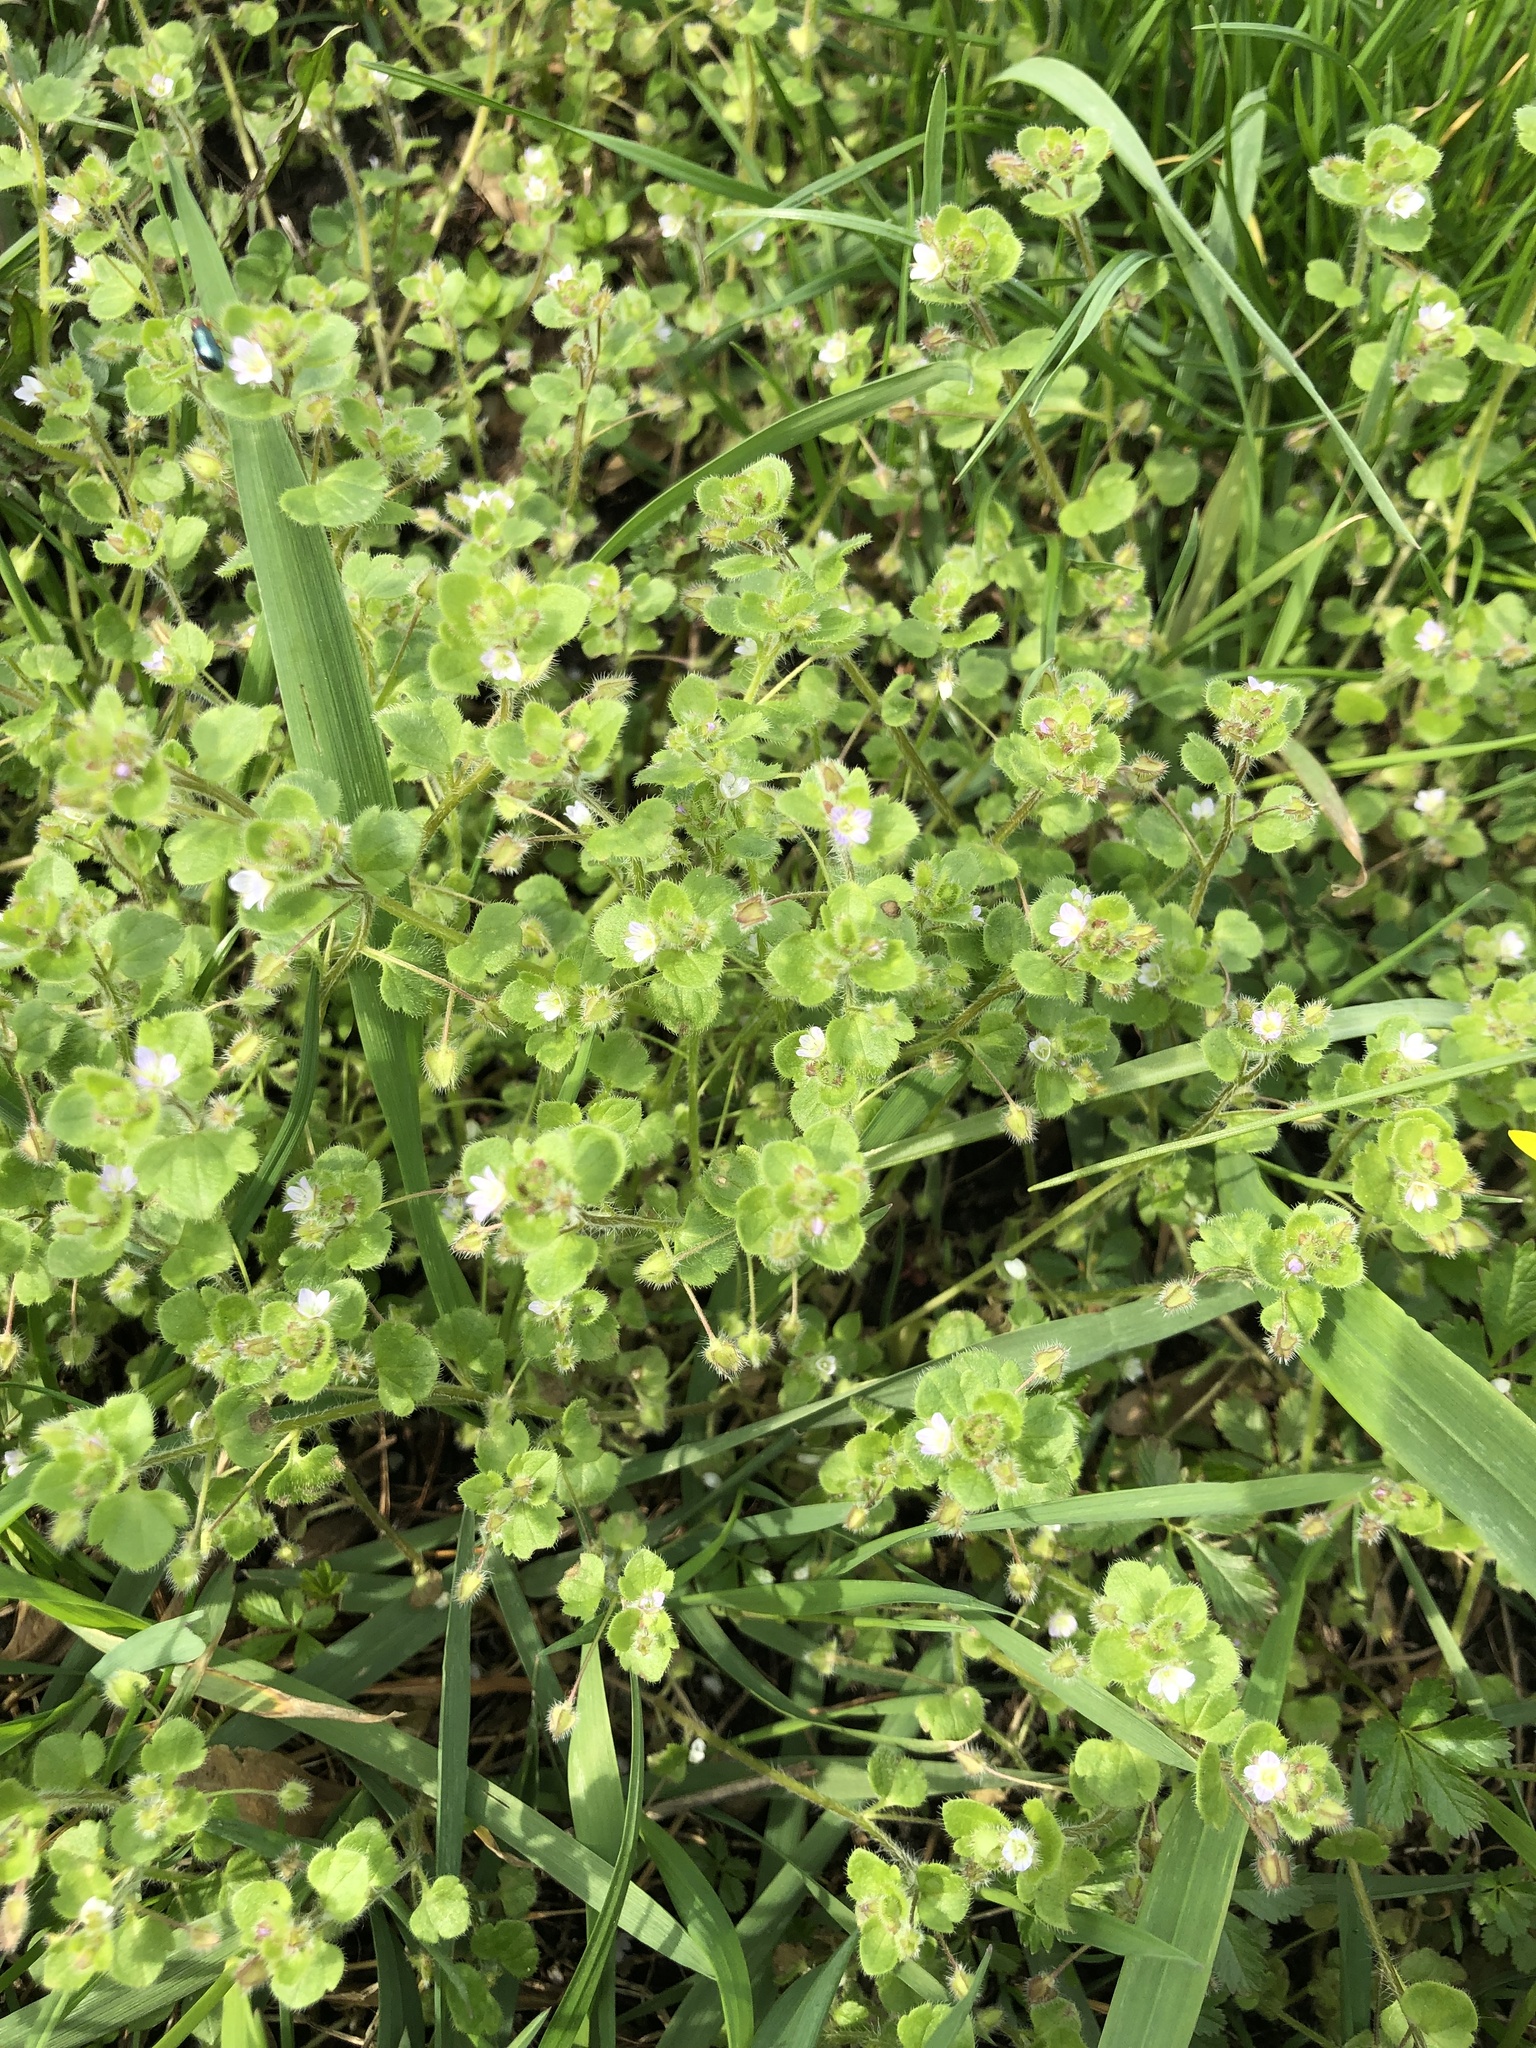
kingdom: Plantae
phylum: Tracheophyta
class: Magnoliopsida
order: Lamiales
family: Plantaginaceae
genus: Veronica
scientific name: Veronica sublobata
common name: False ivy-leaved speedwell
